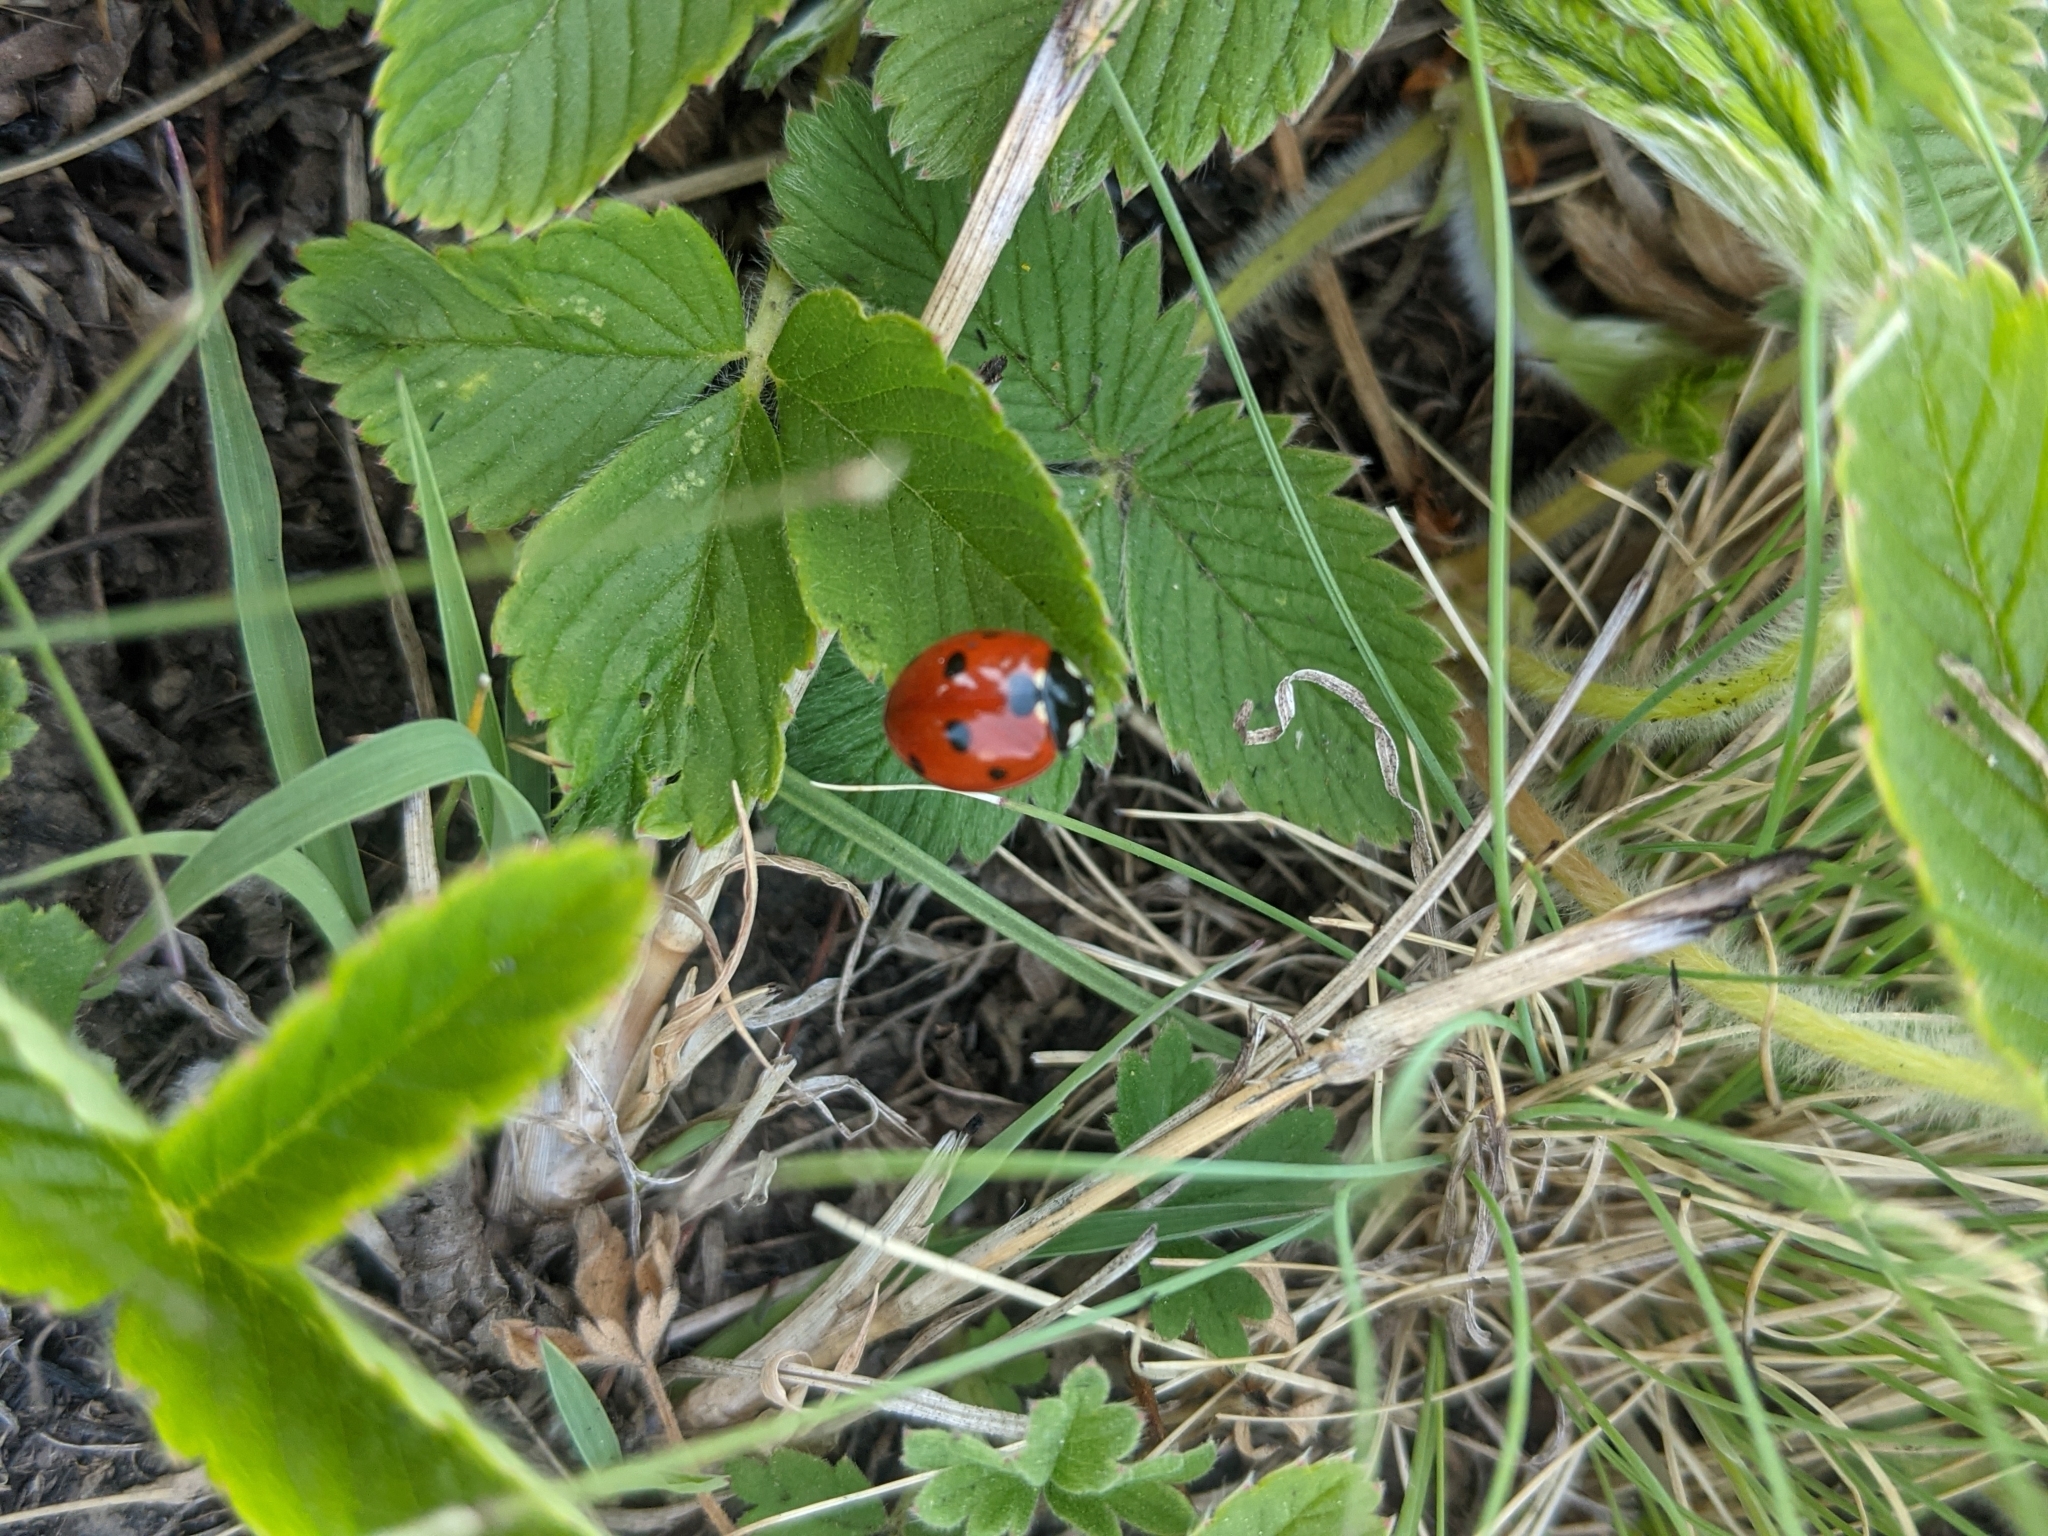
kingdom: Animalia
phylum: Arthropoda
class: Insecta
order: Coleoptera
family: Coccinellidae
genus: Coccinella
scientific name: Coccinella septempunctata
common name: Sevenspotted lady beetle
